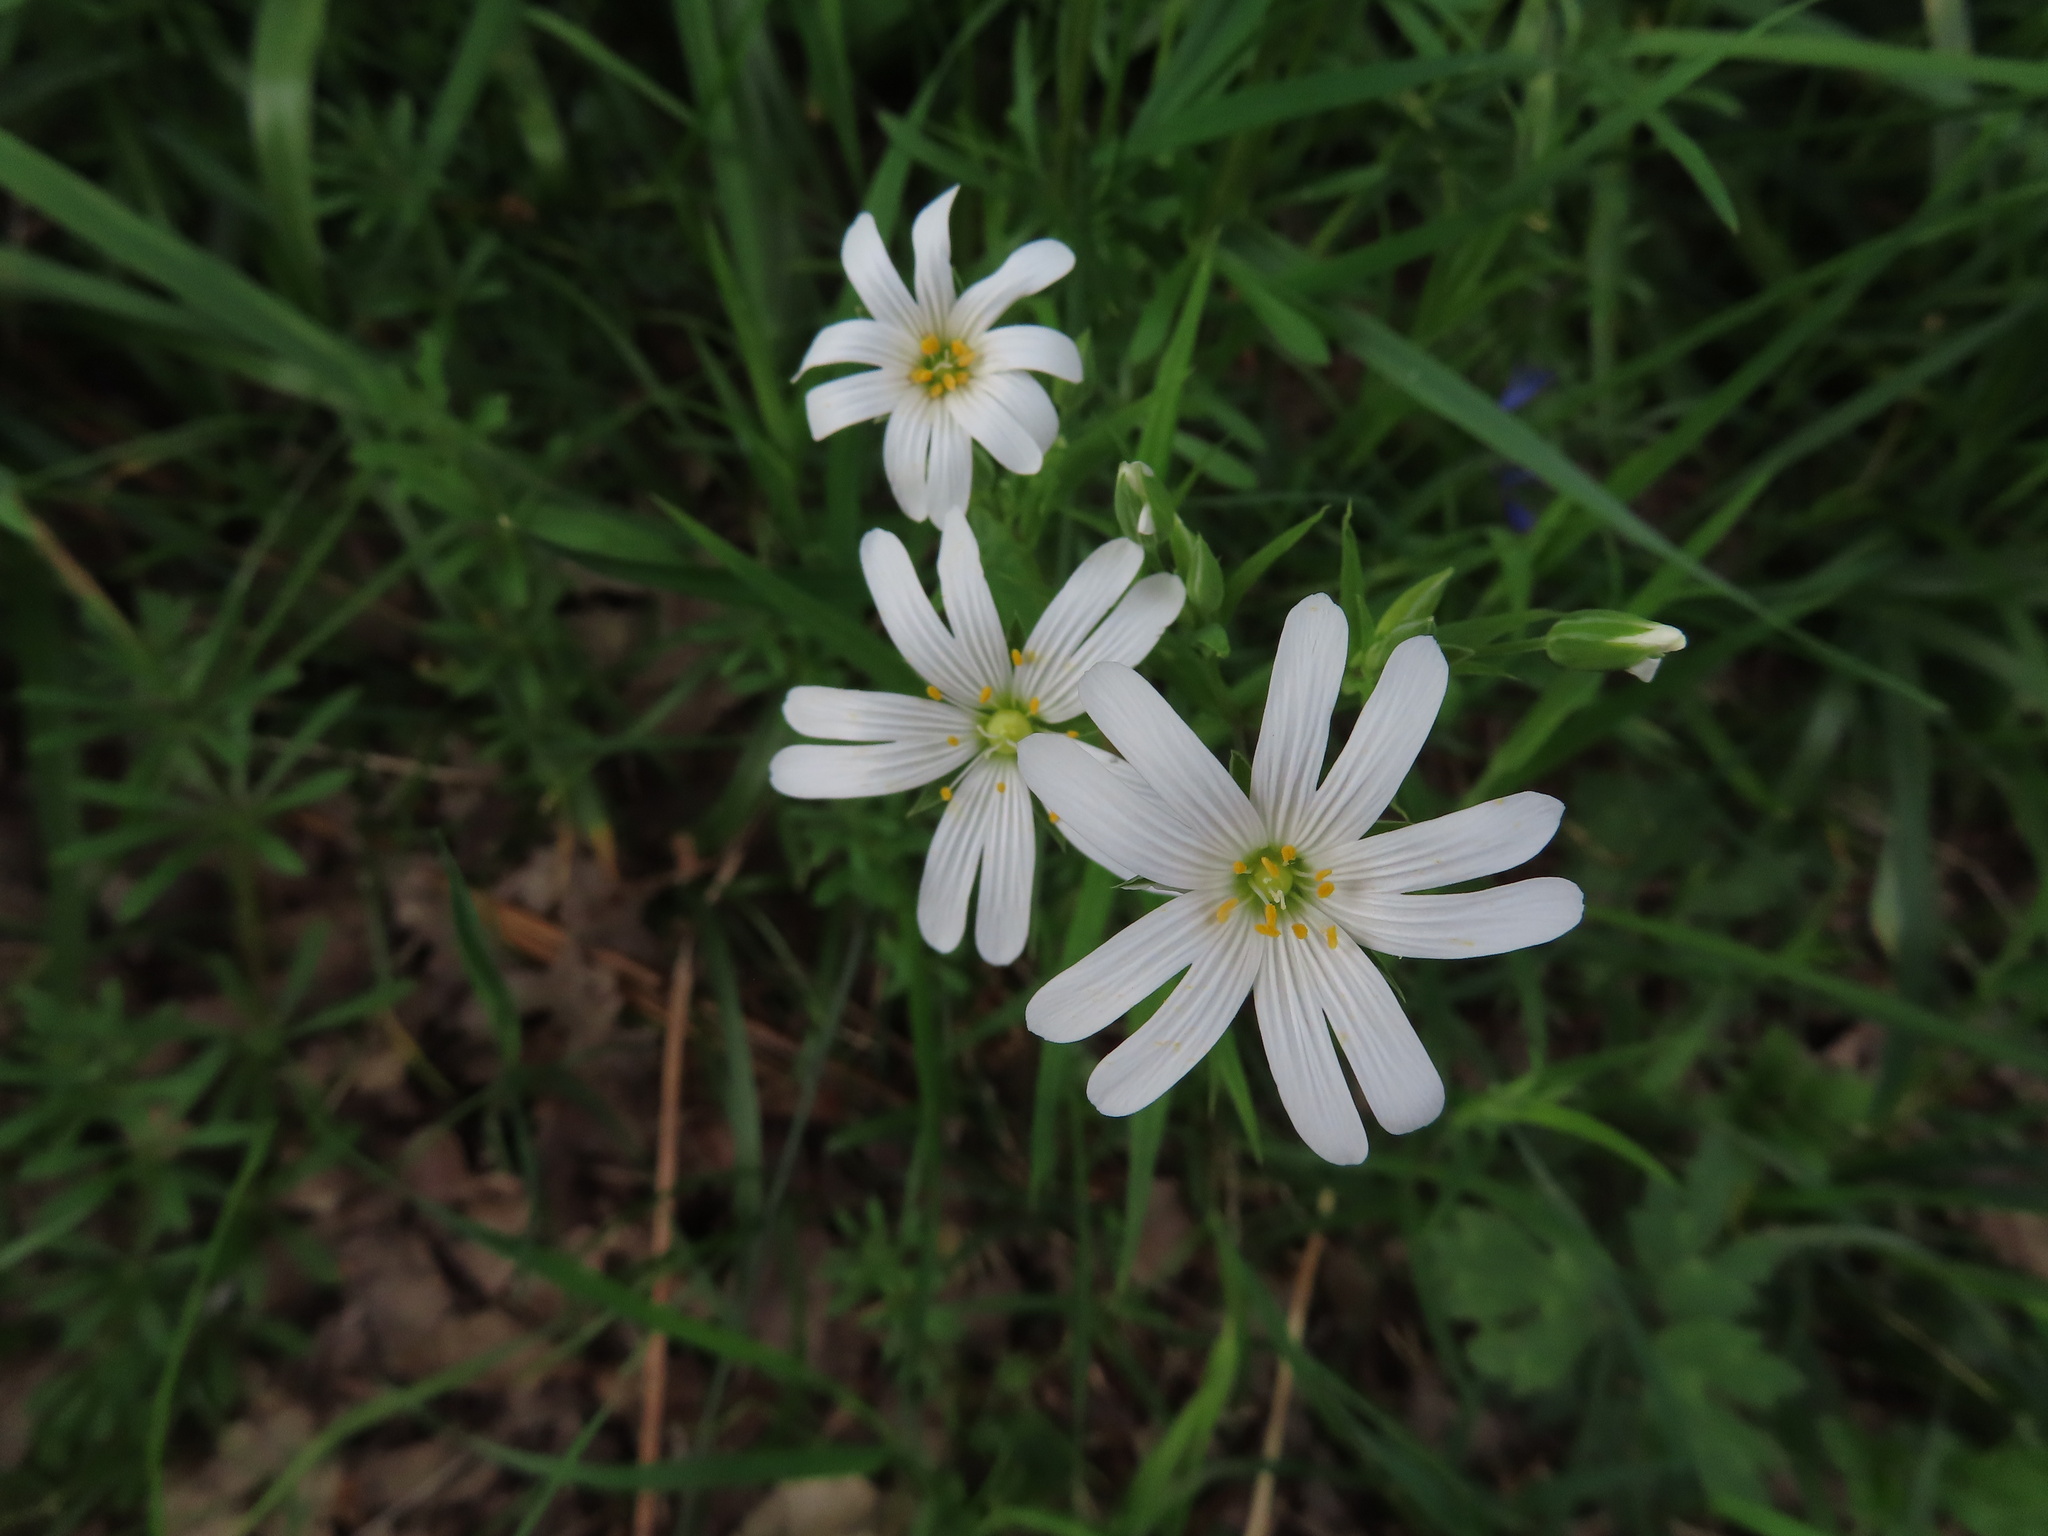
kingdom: Plantae
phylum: Tracheophyta
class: Magnoliopsida
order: Caryophyllales
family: Caryophyllaceae
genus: Rabelera
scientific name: Rabelera holostea
